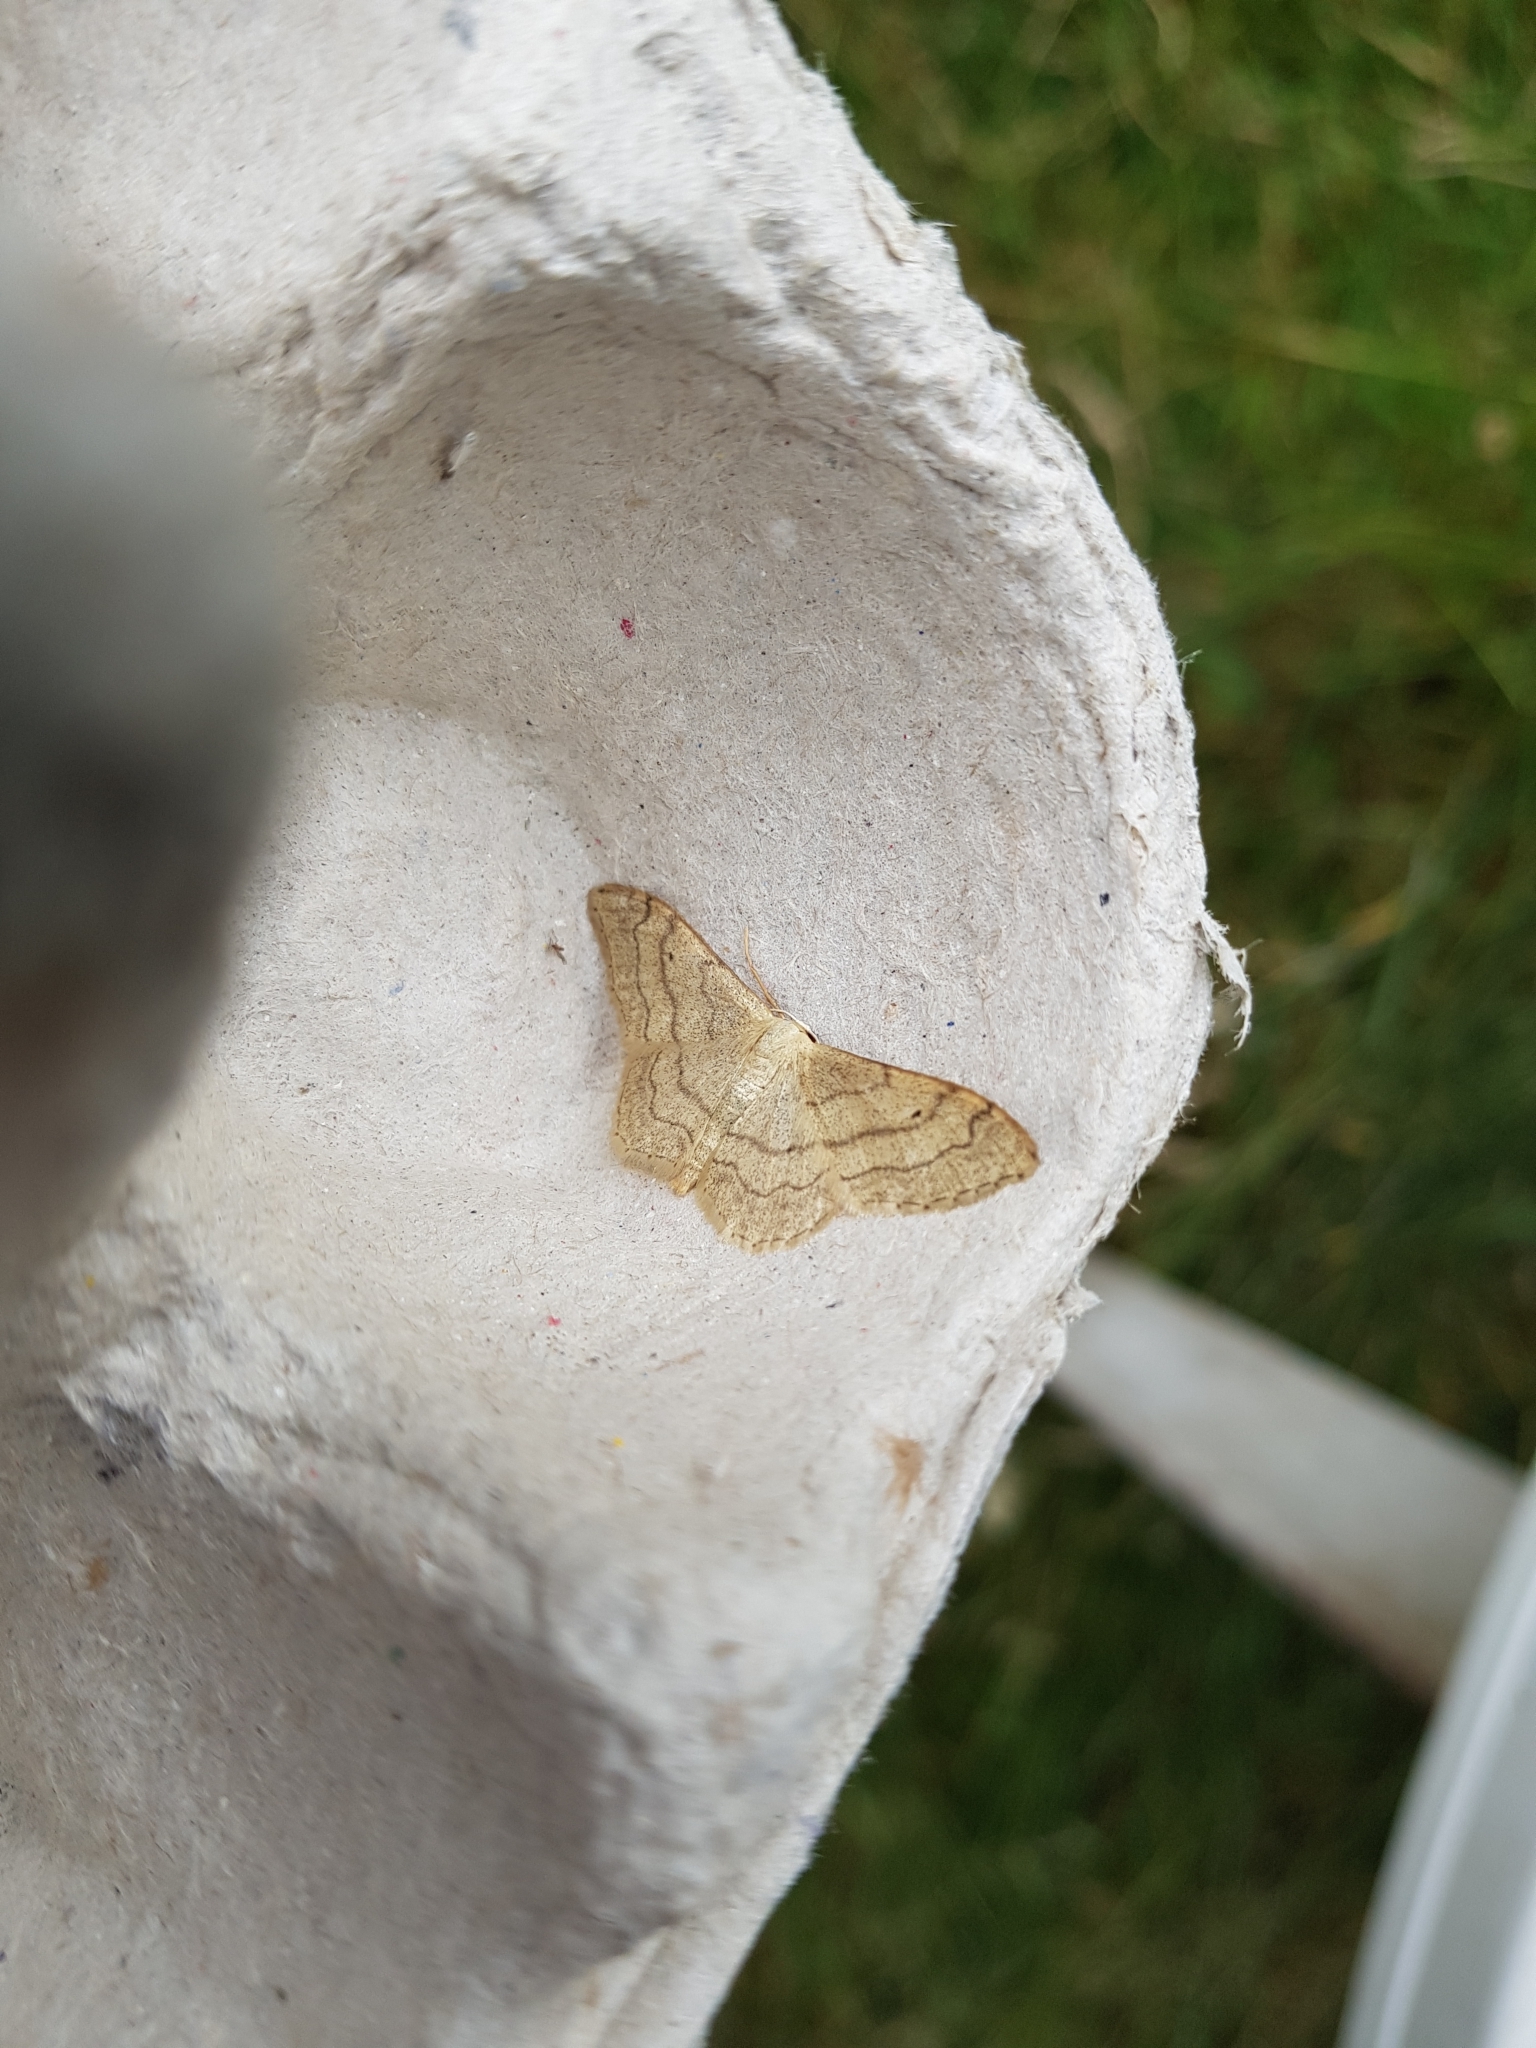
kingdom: Animalia
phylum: Arthropoda
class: Insecta
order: Lepidoptera
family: Geometridae
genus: Idaea
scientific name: Idaea aversata
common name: Riband wave
